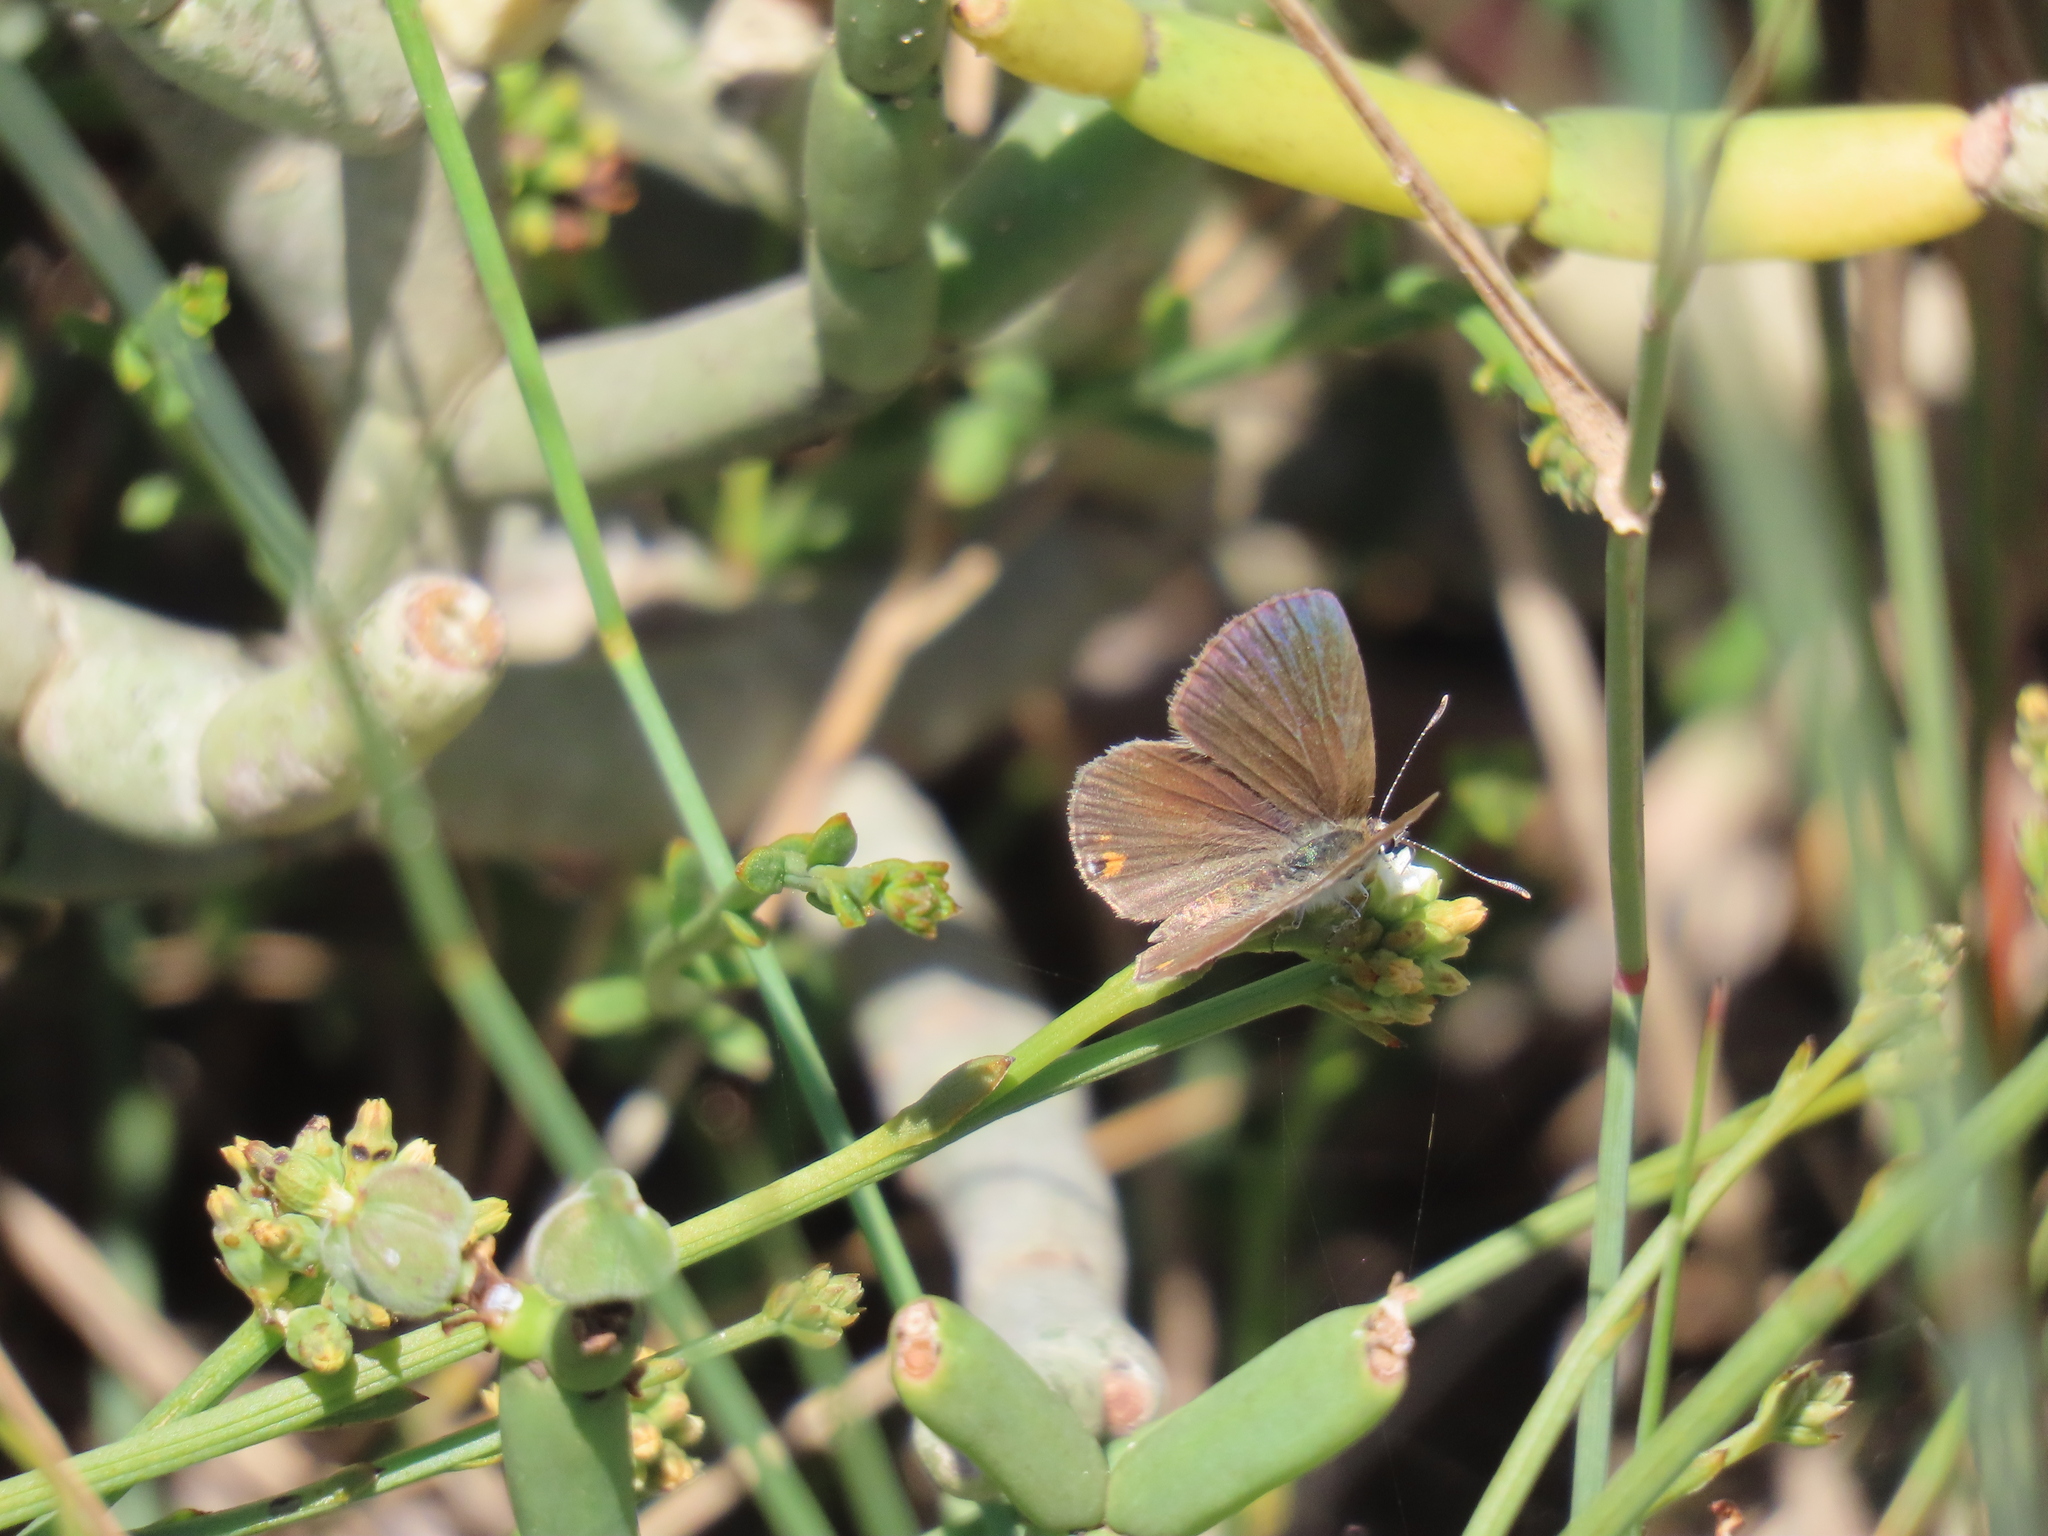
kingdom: Animalia
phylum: Arthropoda
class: Insecta
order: Lepidoptera
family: Lycaenidae
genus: Eicochrysops
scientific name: Eicochrysops messapus
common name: Cupreous blue
